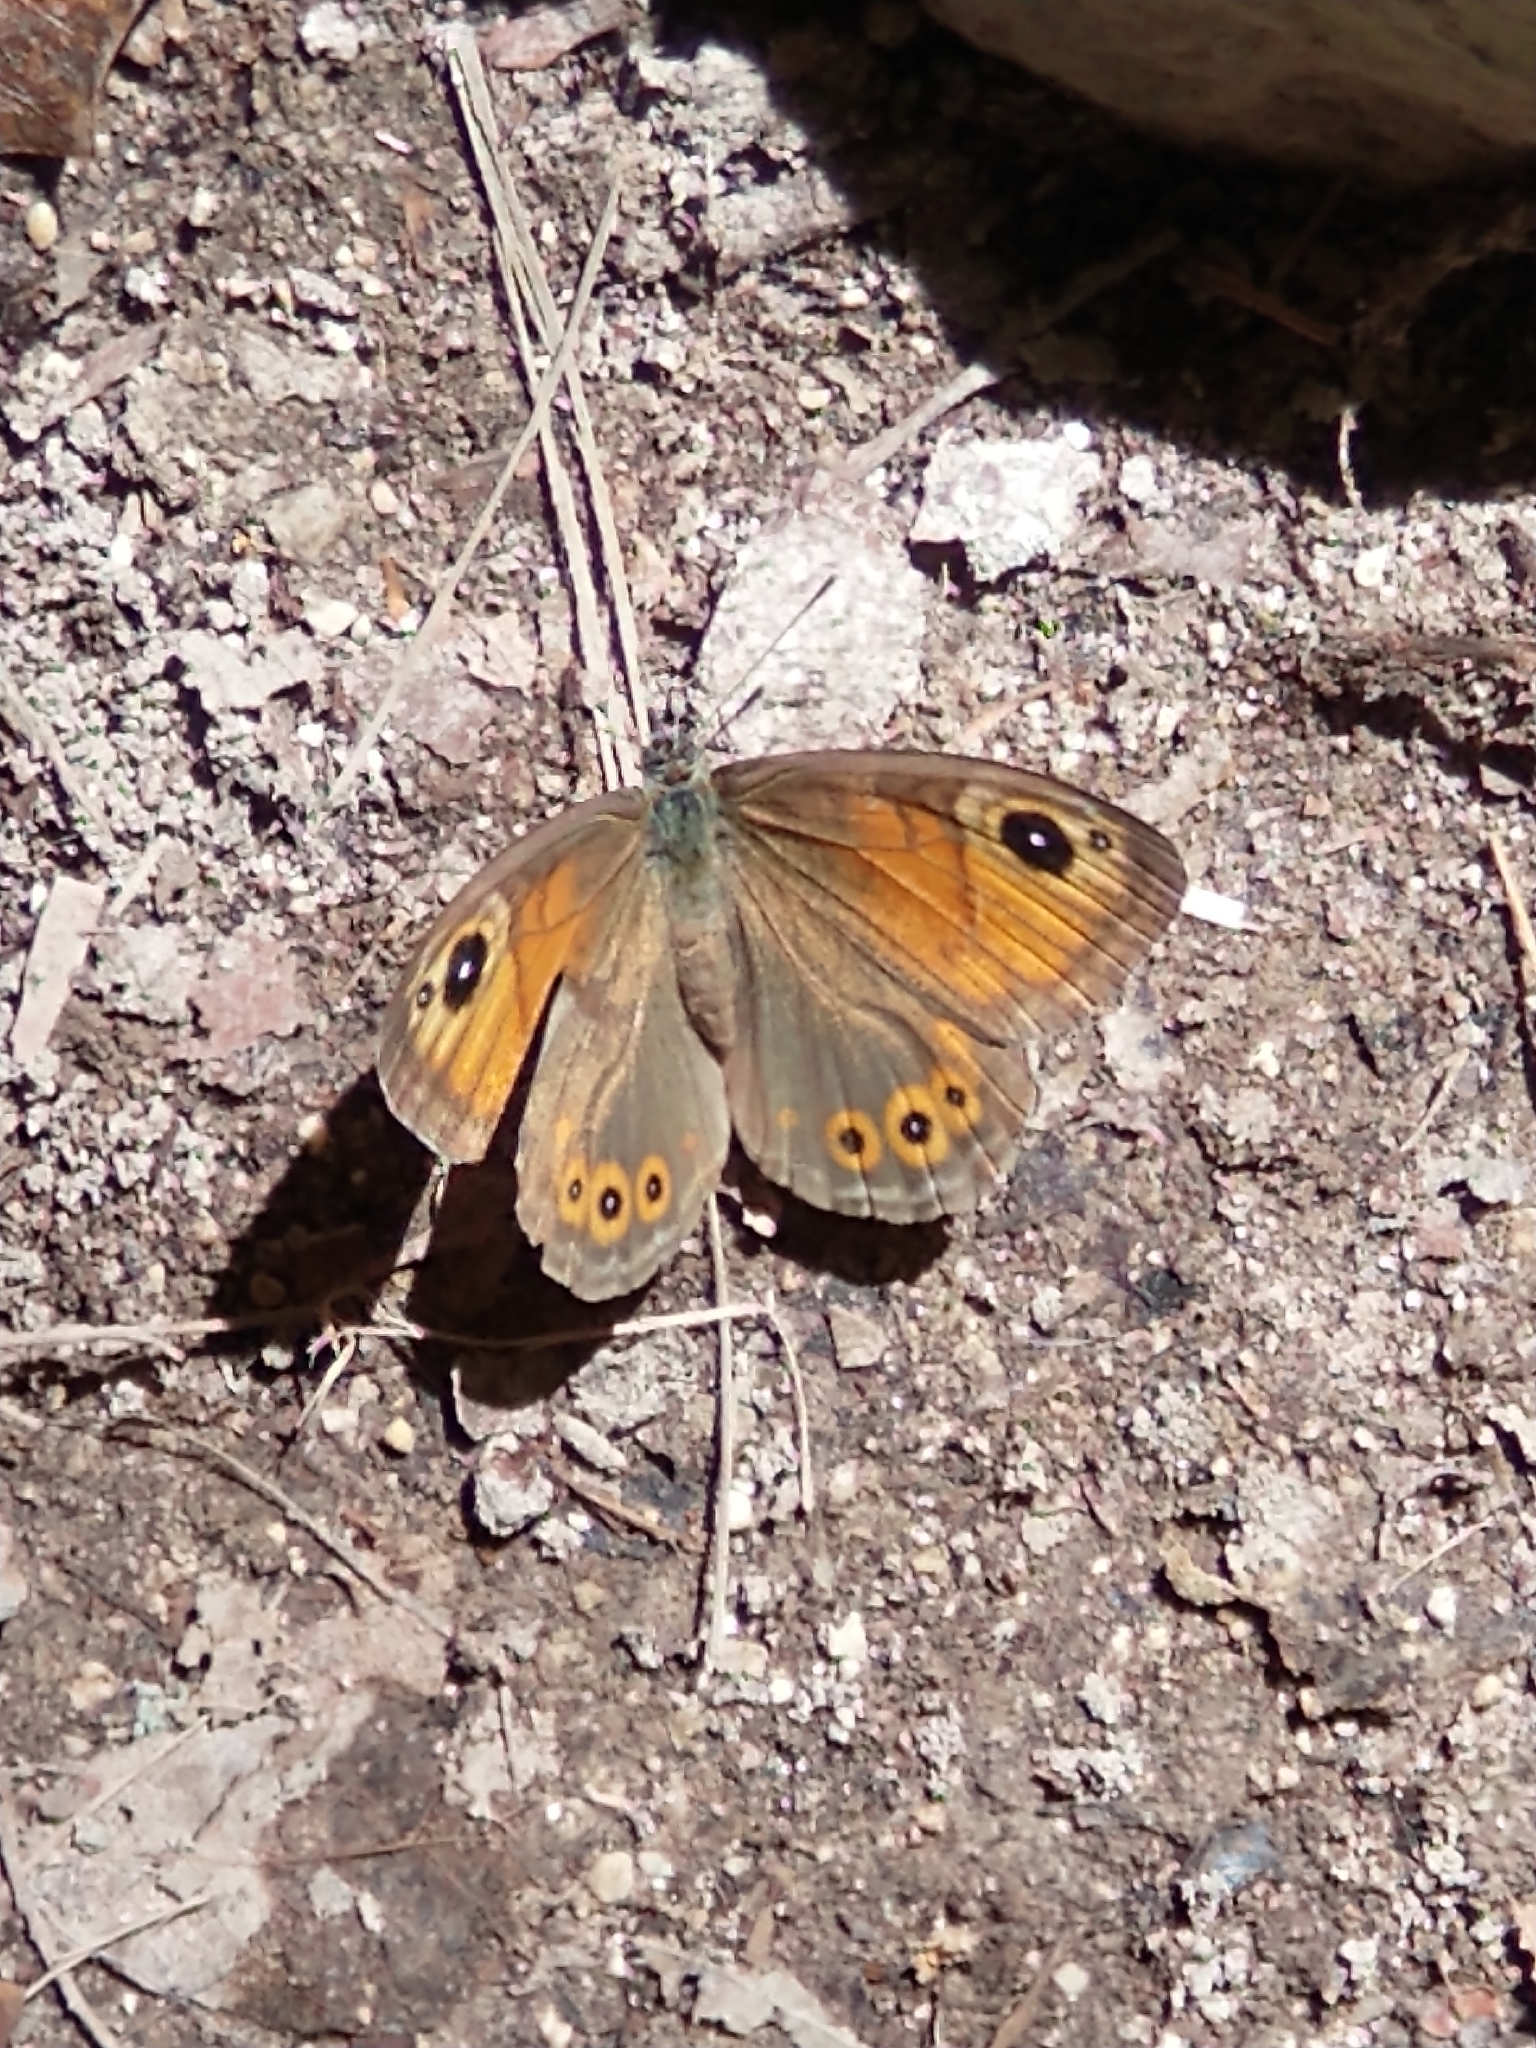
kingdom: Animalia
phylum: Arthropoda
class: Insecta
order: Lepidoptera
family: Nymphalidae
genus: Pararge
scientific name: Pararge Lasiommata maera
